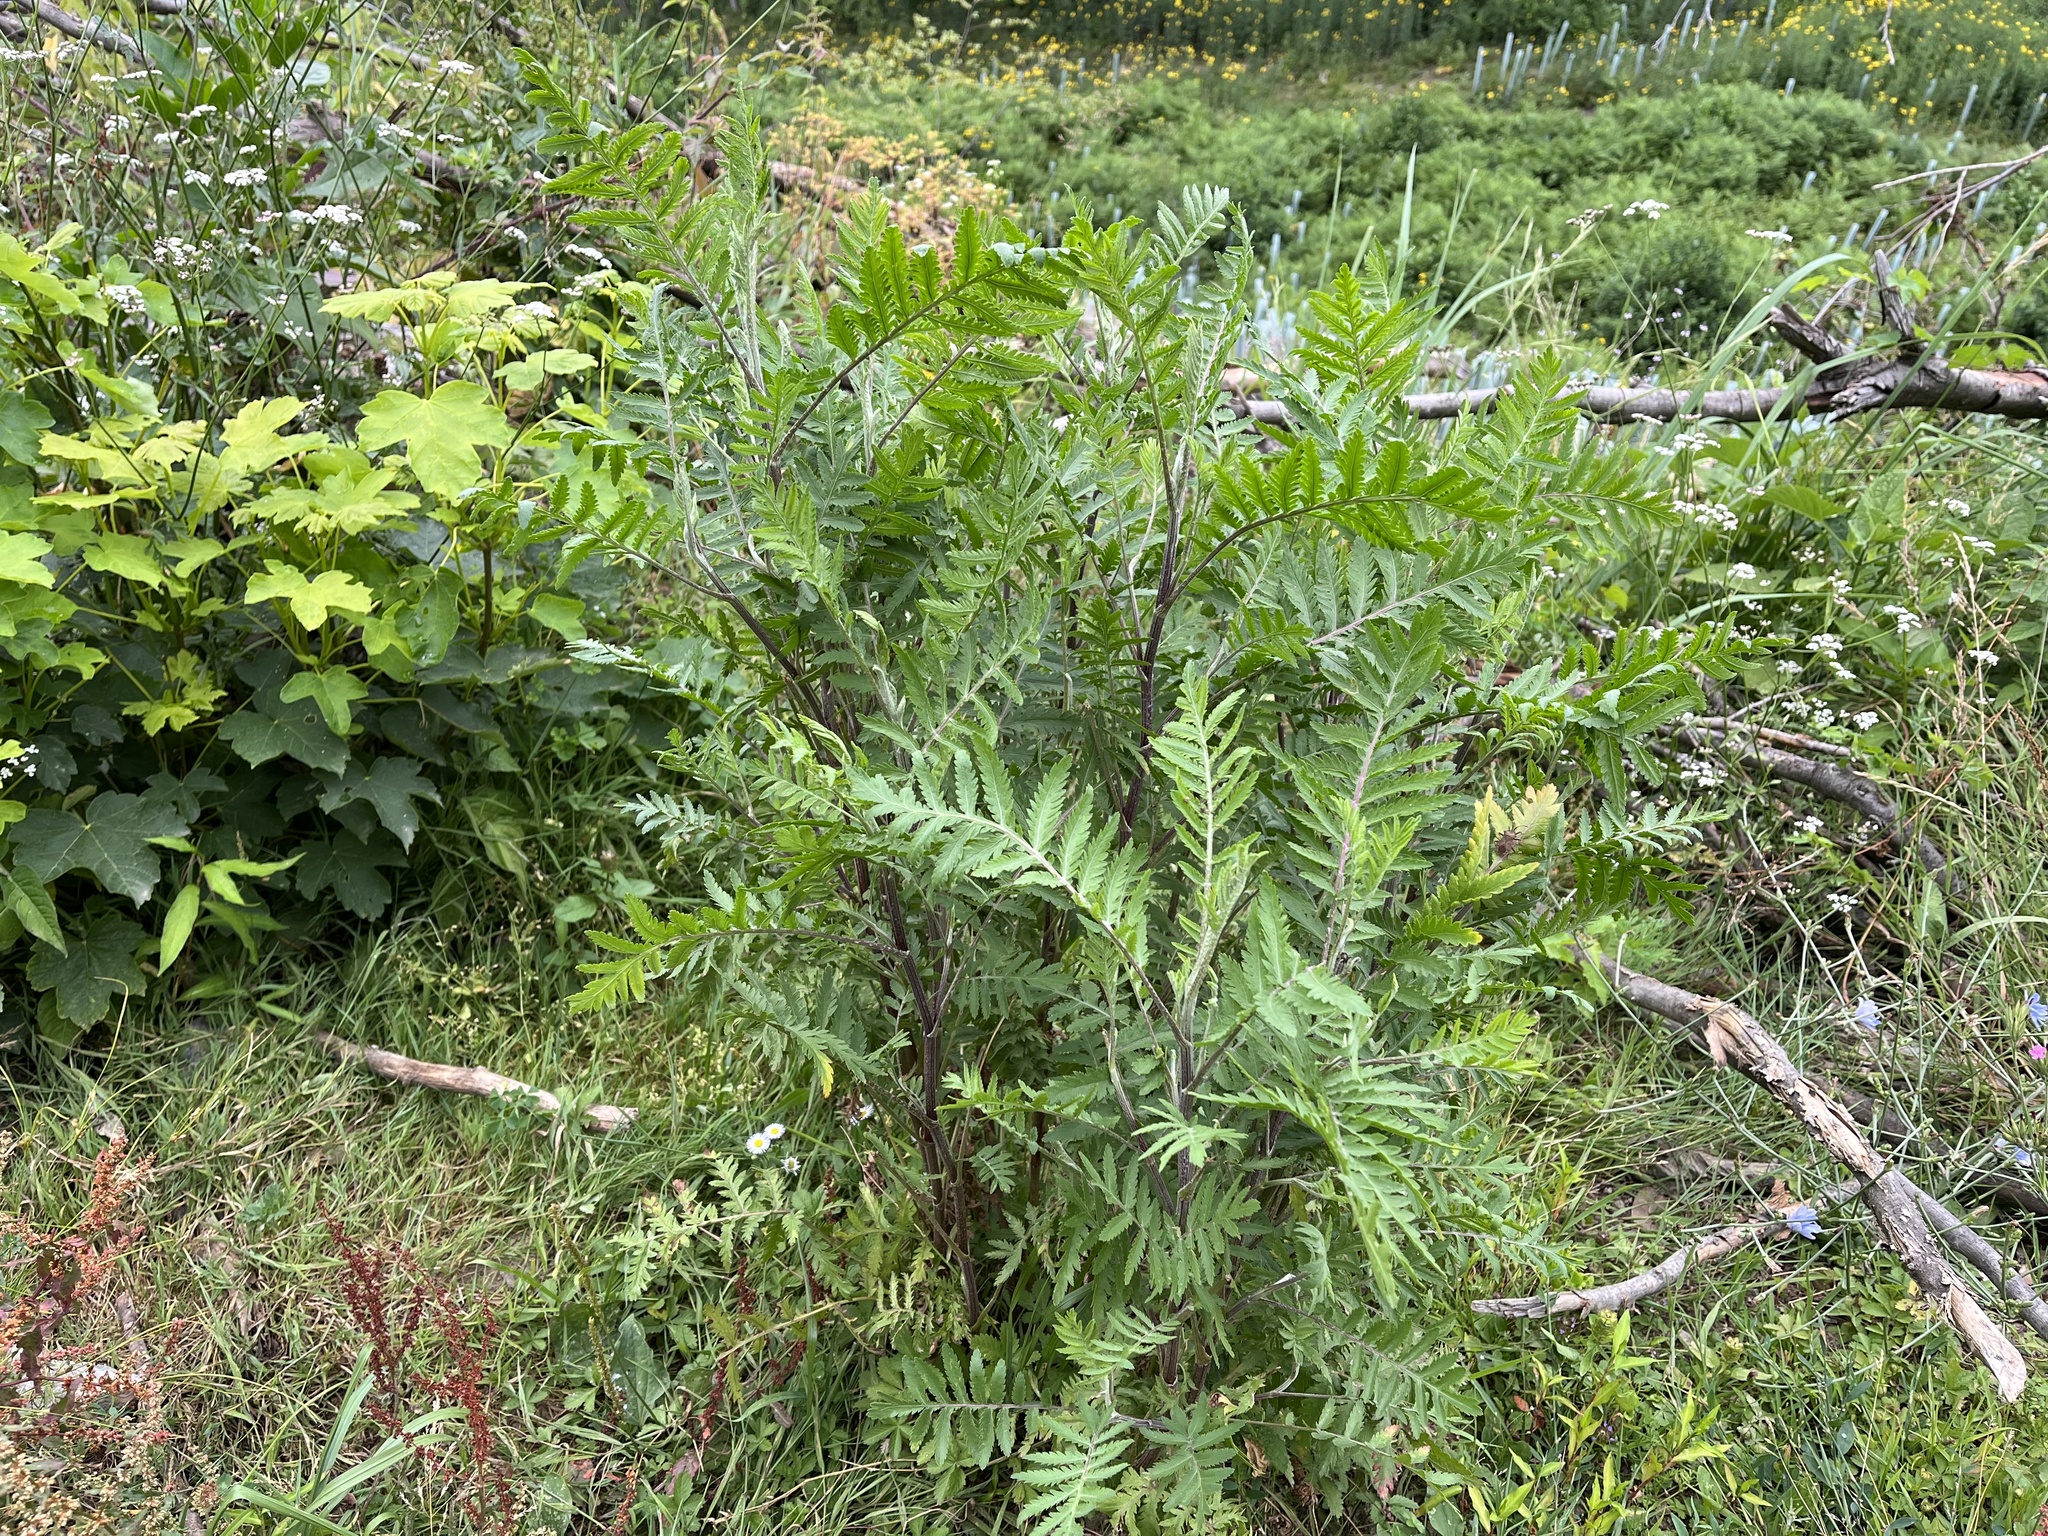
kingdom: Plantae
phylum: Tracheophyta
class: Magnoliopsida
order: Asterales
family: Asteraceae
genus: Tanacetum
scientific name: Tanacetum vulgare
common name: Common tansy
